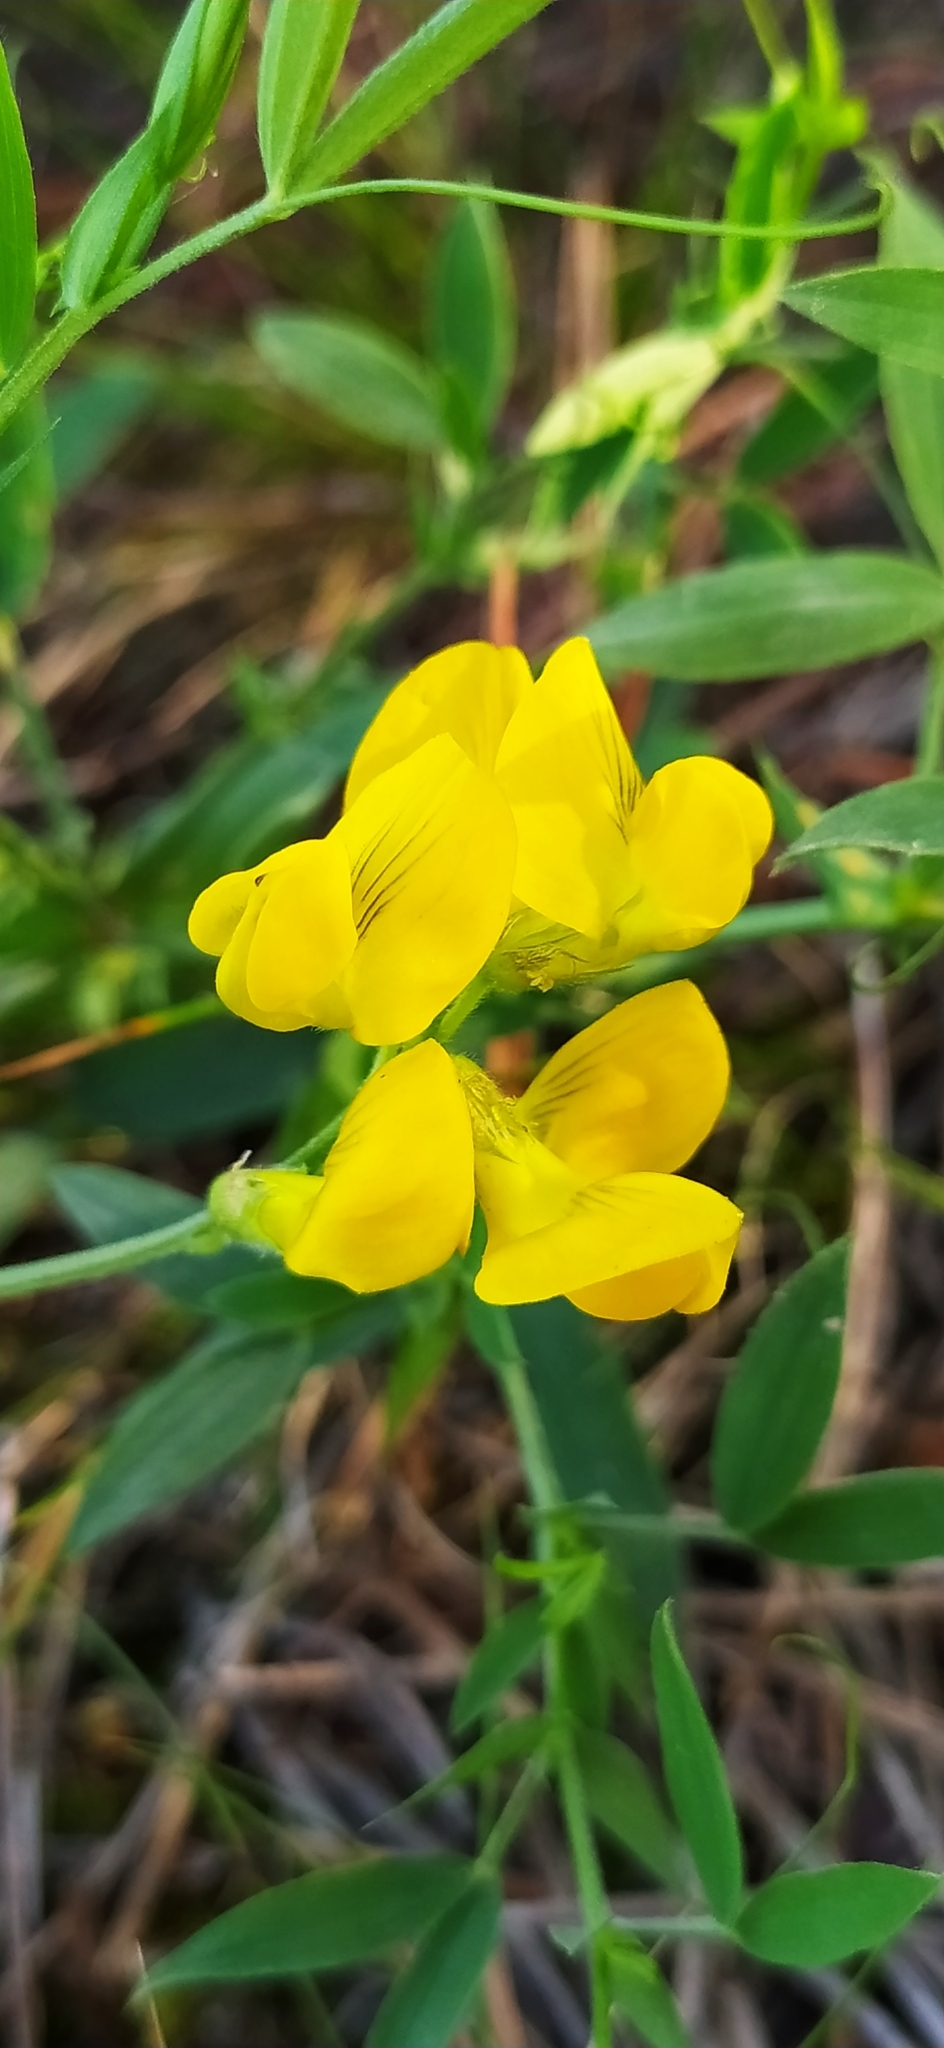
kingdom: Plantae
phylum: Tracheophyta
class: Magnoliopsida
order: Fabales
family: Fabaceae
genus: Lathyrus
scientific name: Lathyrus pratensis
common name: Meadow vetchling
